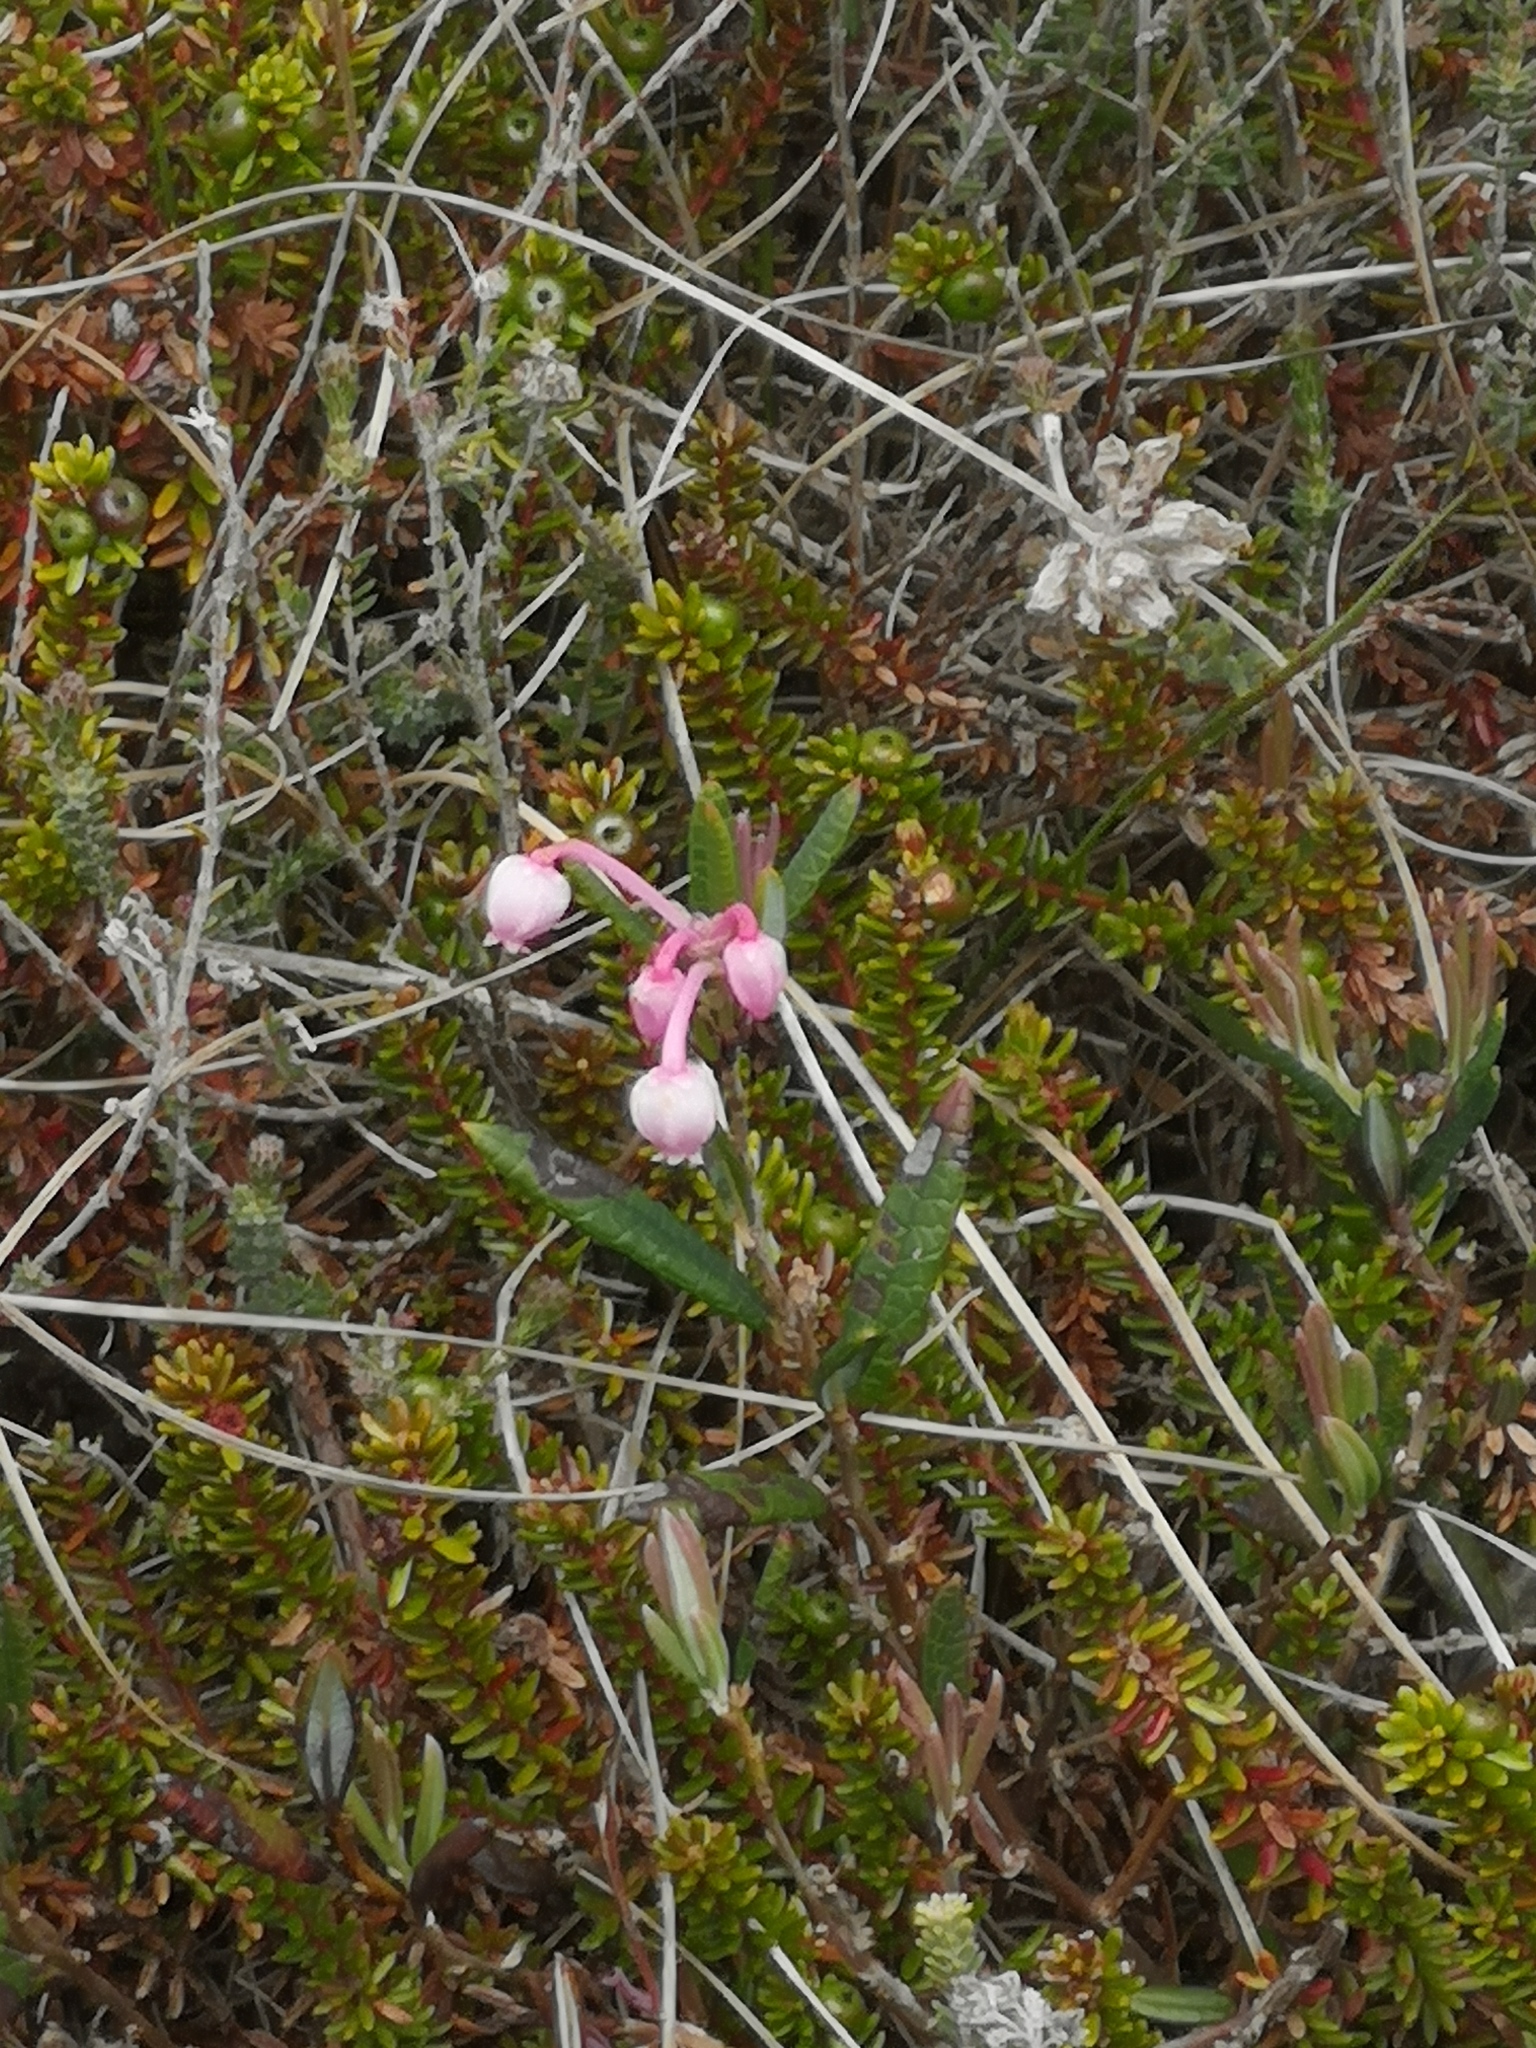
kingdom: Plantae
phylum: Tracheophyta
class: Magnoliopsida
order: Ericales
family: Ericaceae
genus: Andromeda
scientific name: Andromeda polifolia
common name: Bog-rosemary
